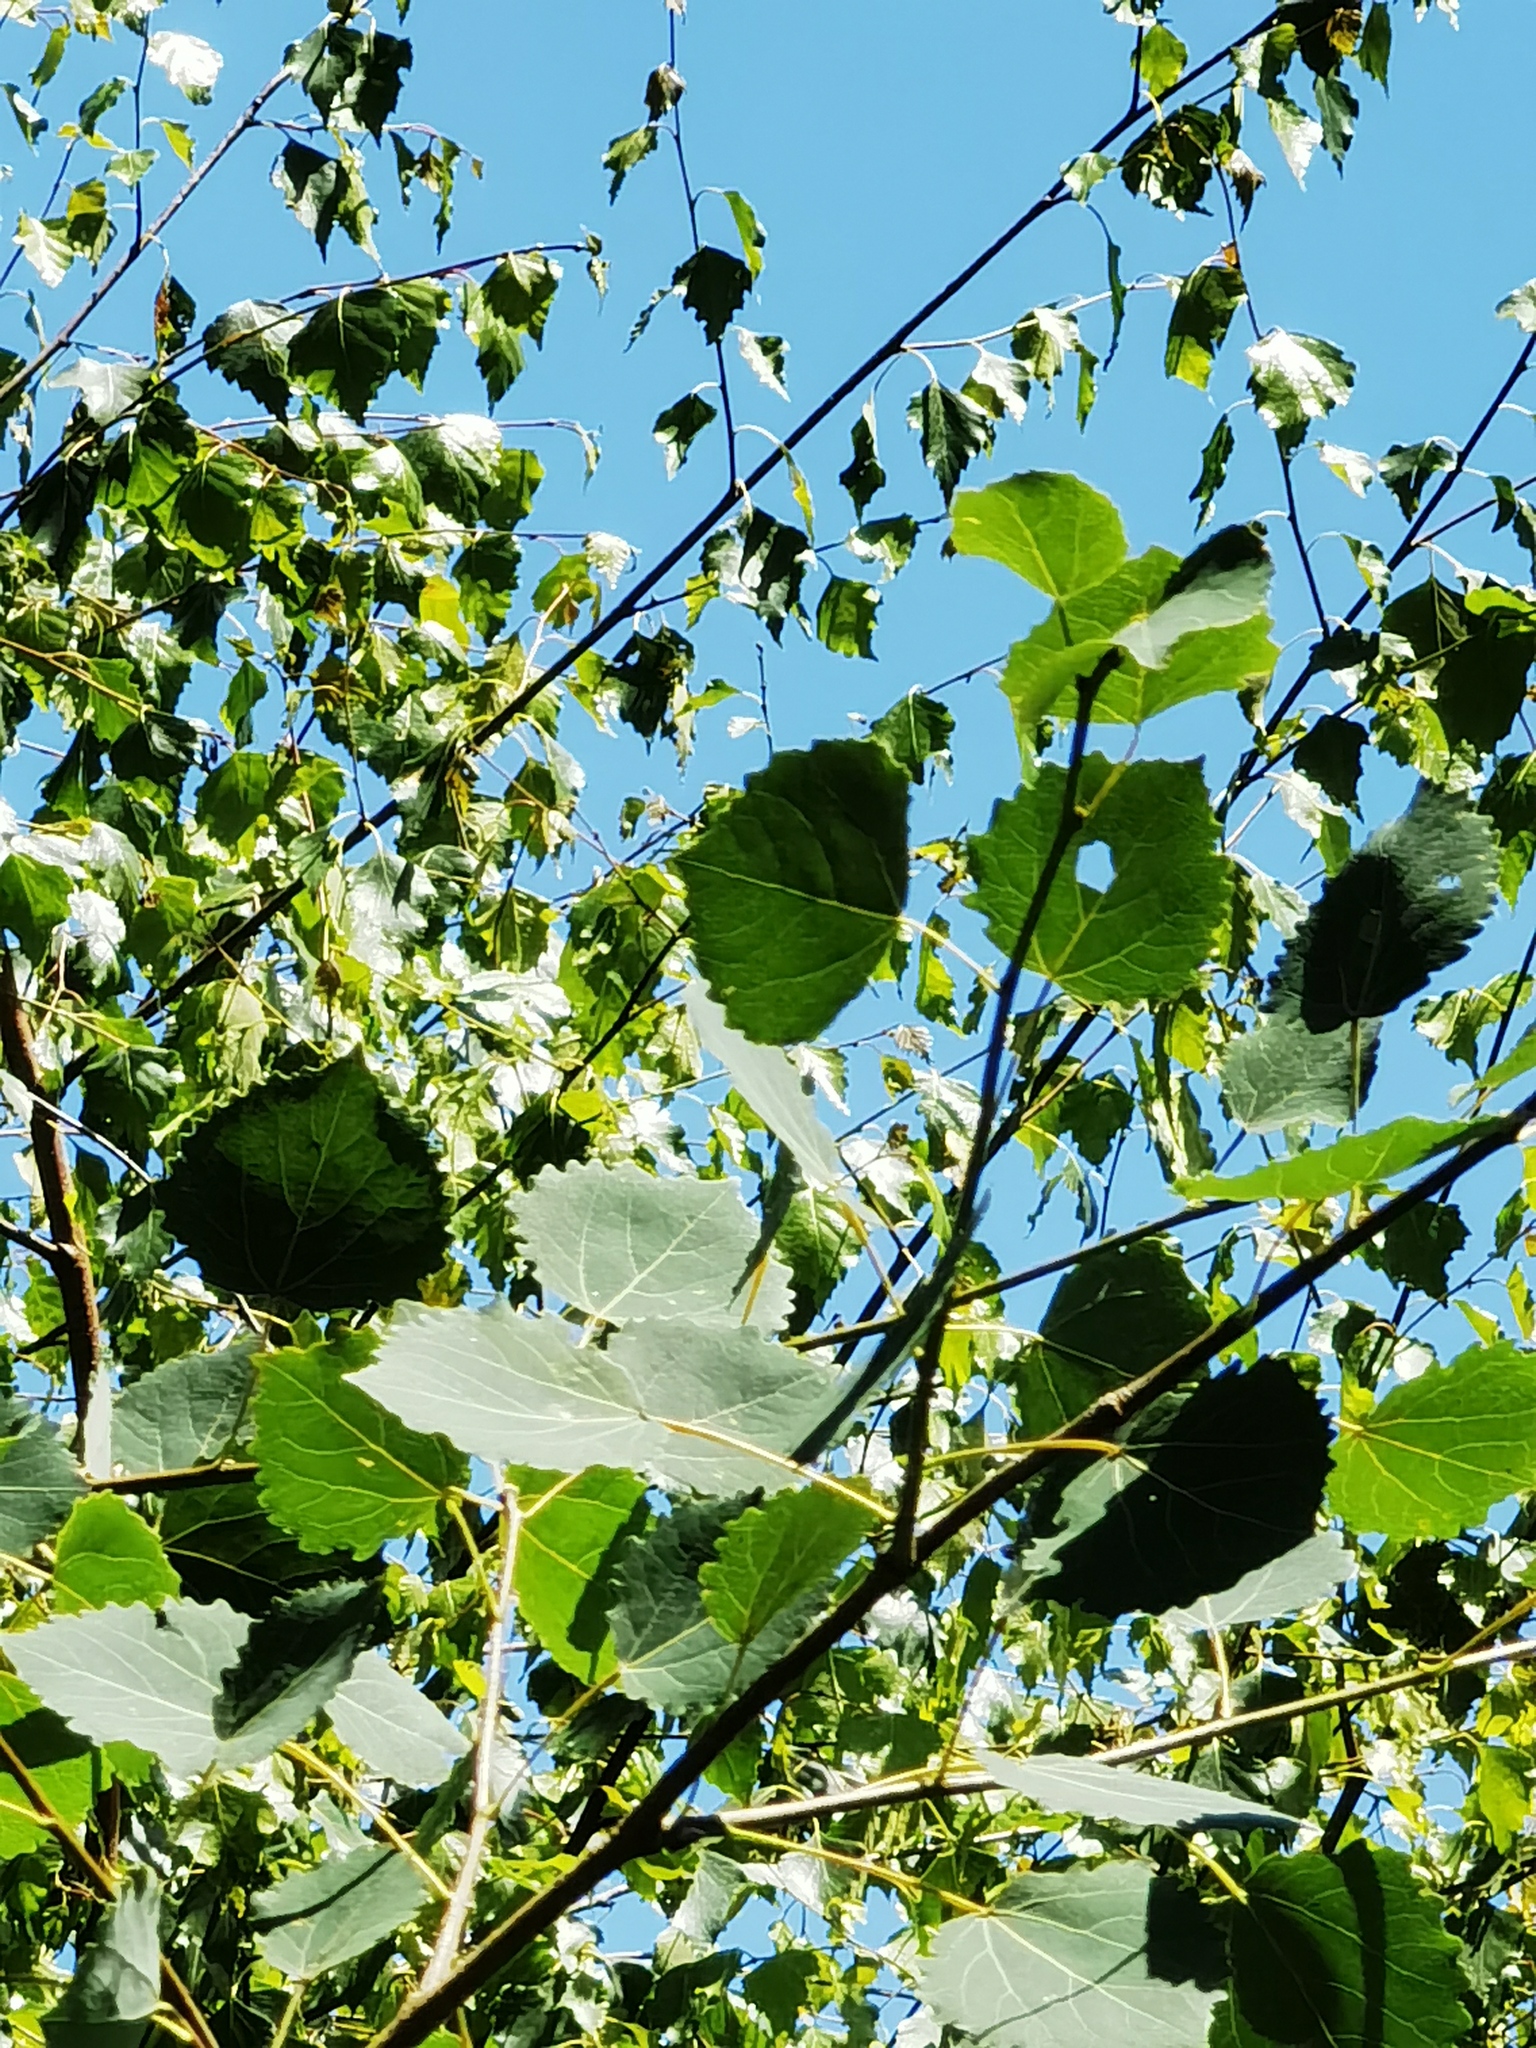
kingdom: Plantae
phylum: Tracheophyta
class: Magnoliopsida
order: Malpighiales
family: Salicaceae
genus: Populus
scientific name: Populus tremula
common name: European aspen
